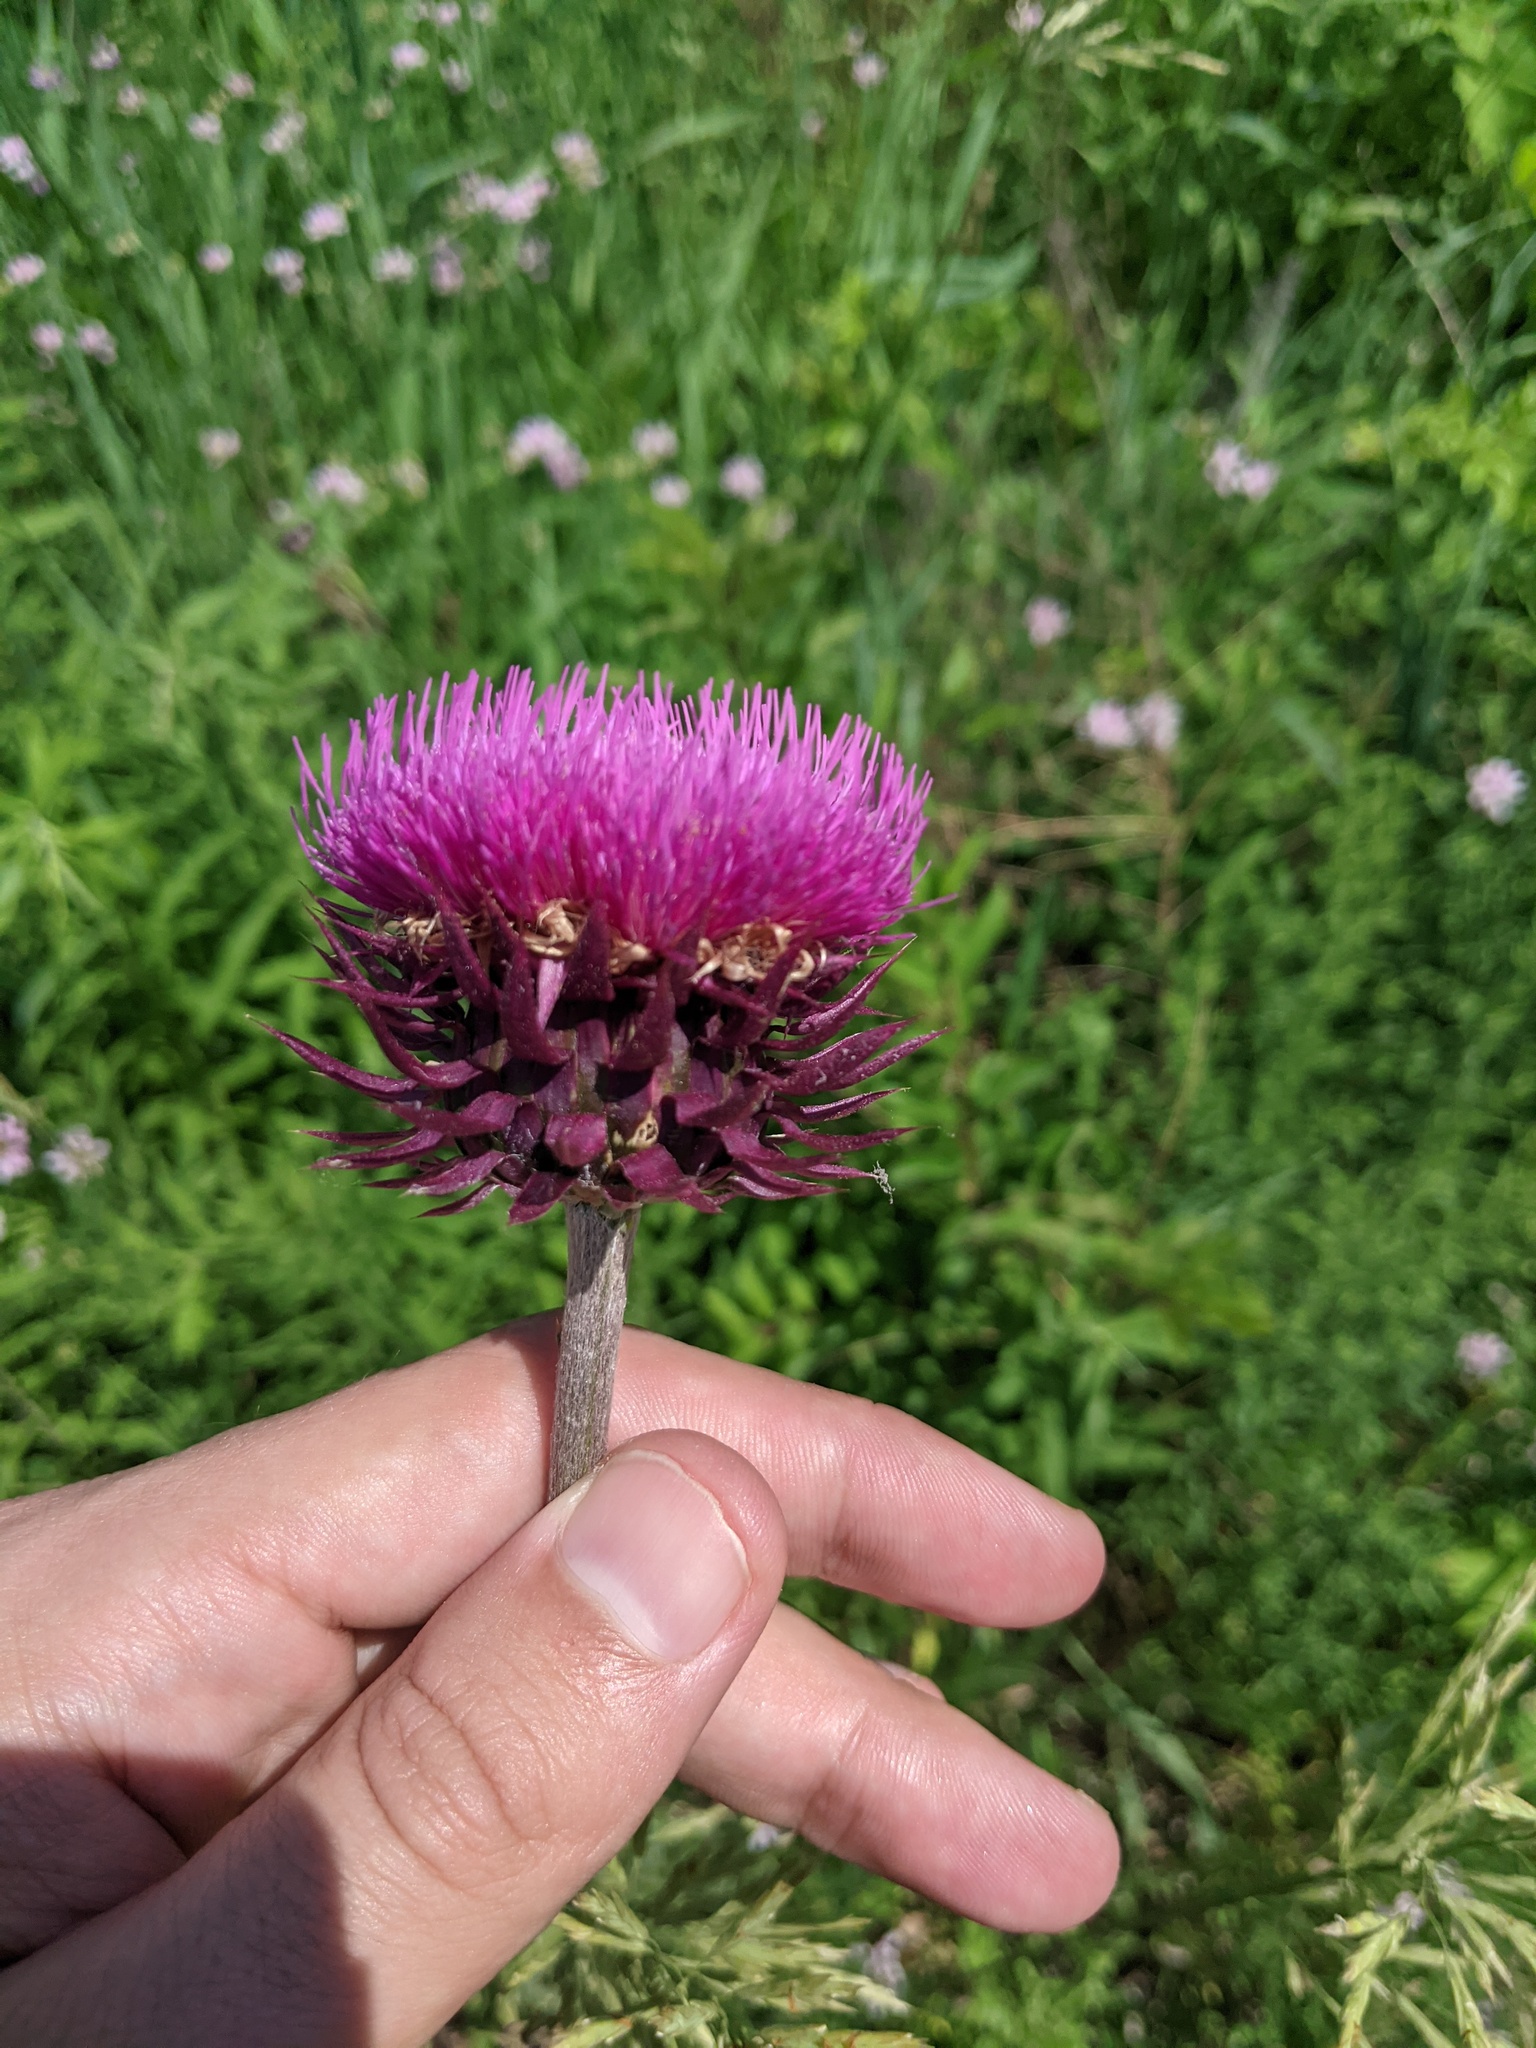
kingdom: Plantae
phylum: Tracheophyta
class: Magnoliopsida
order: Asterales
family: Asteraceae
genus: Carduus
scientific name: Carduus nutans
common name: Musk thistle
